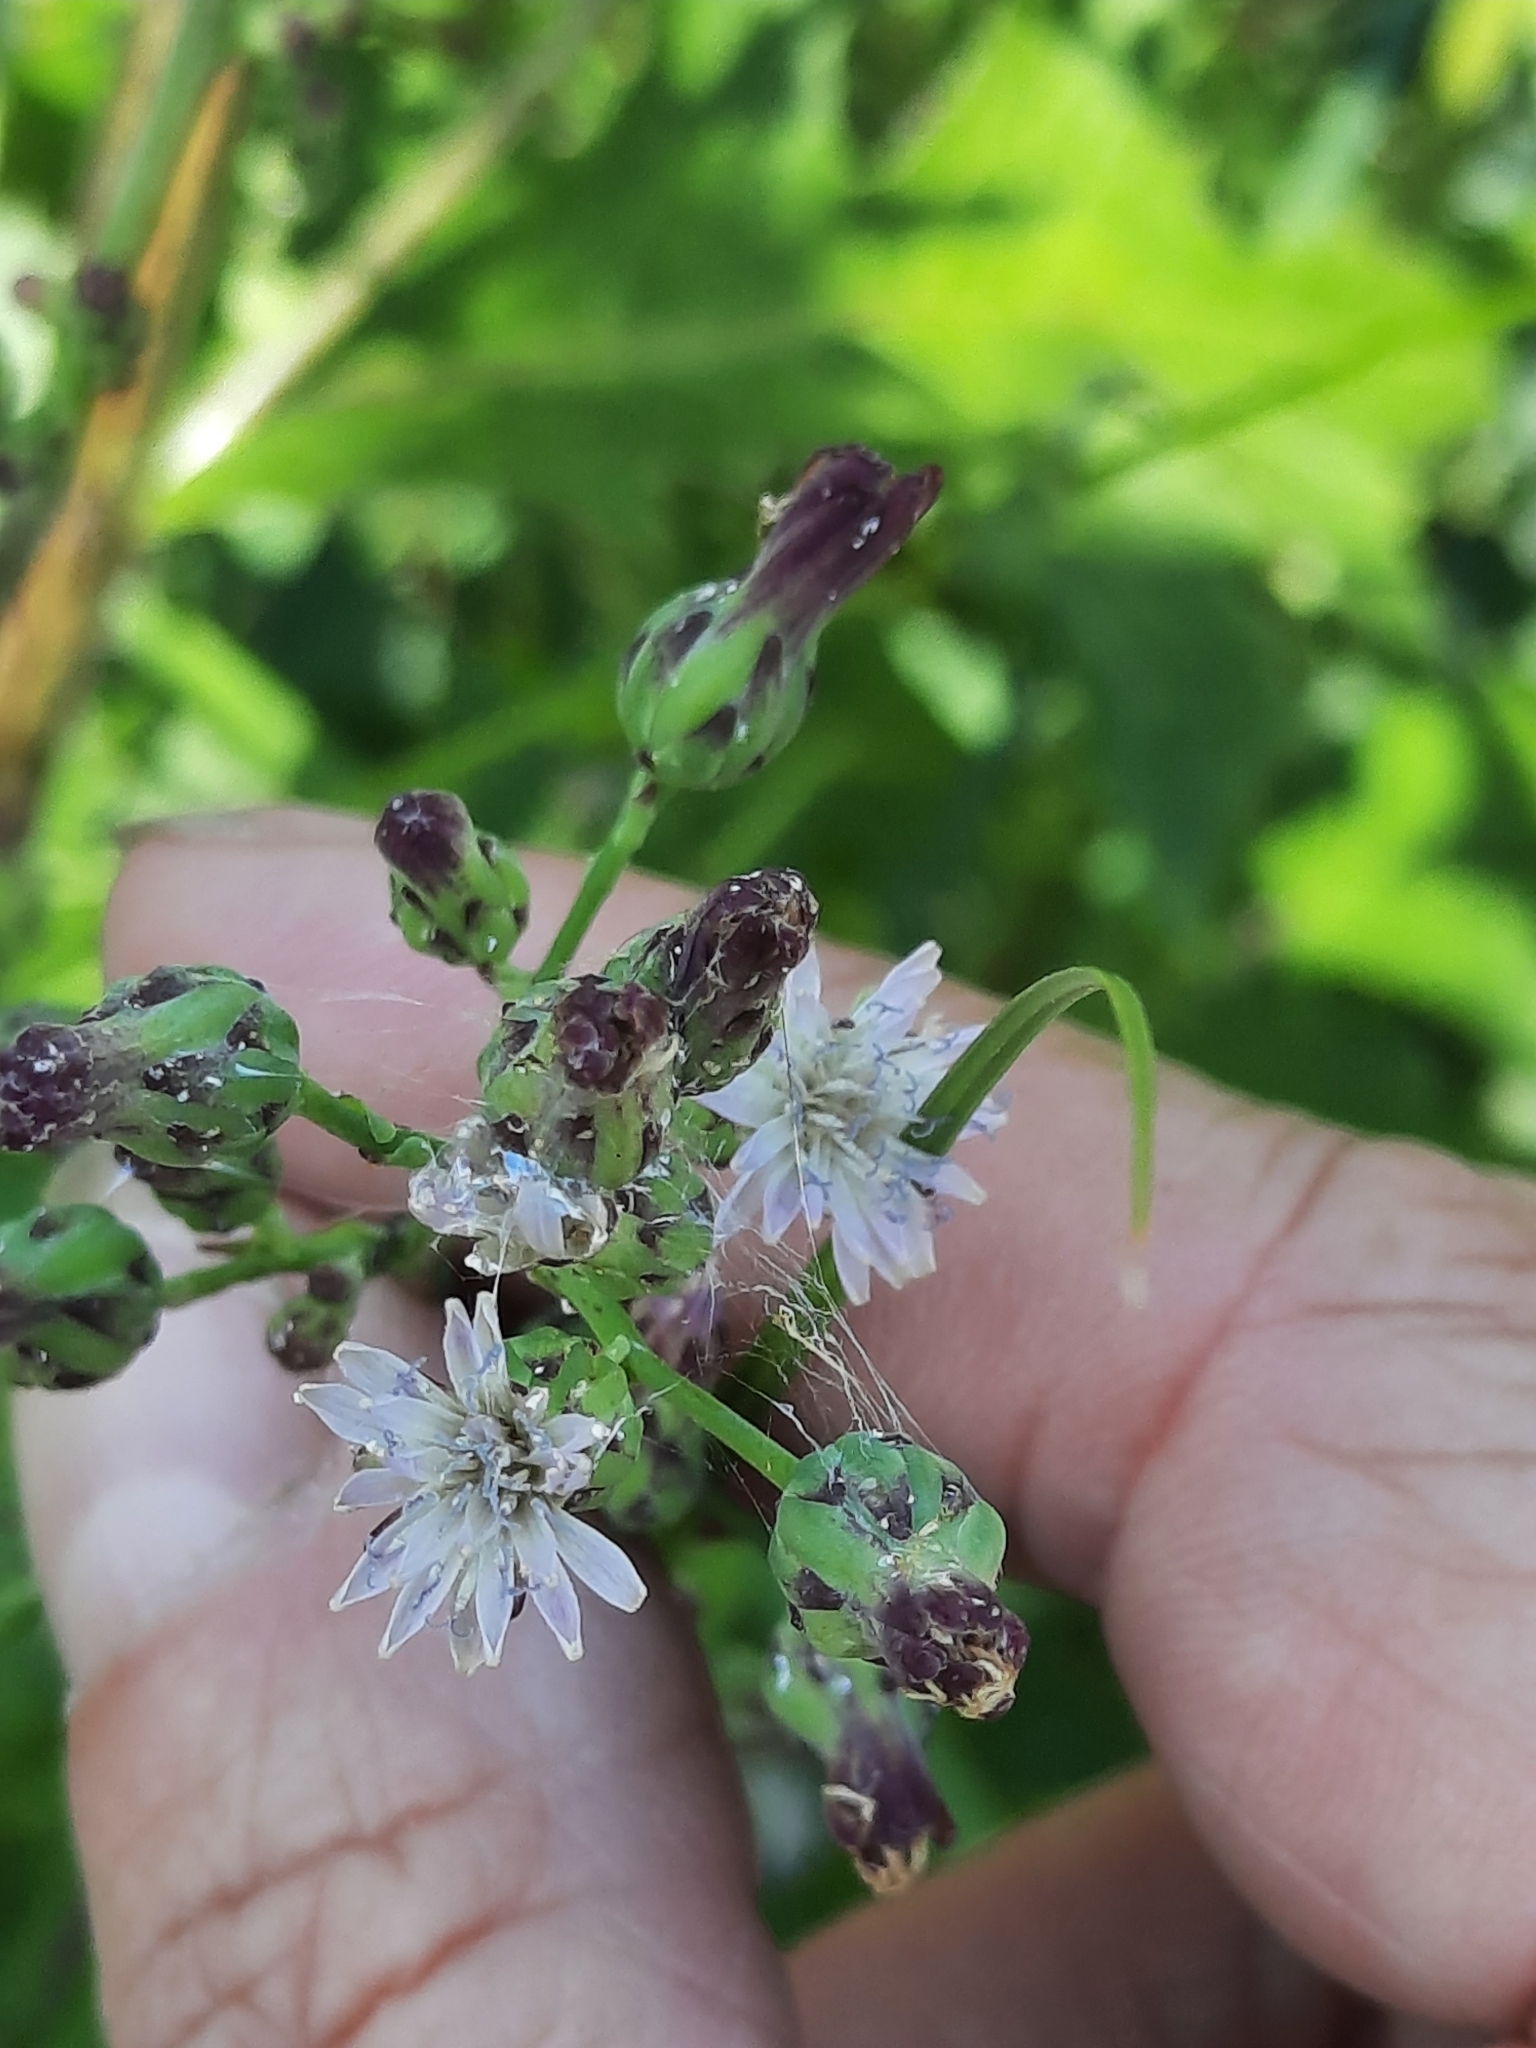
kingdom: Plantae
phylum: Tracheophyta
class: Magnoliopsida
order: Asterales
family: Asteraceae
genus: Lactuca
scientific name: Lactuca biennis
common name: Blue wood lettuce
